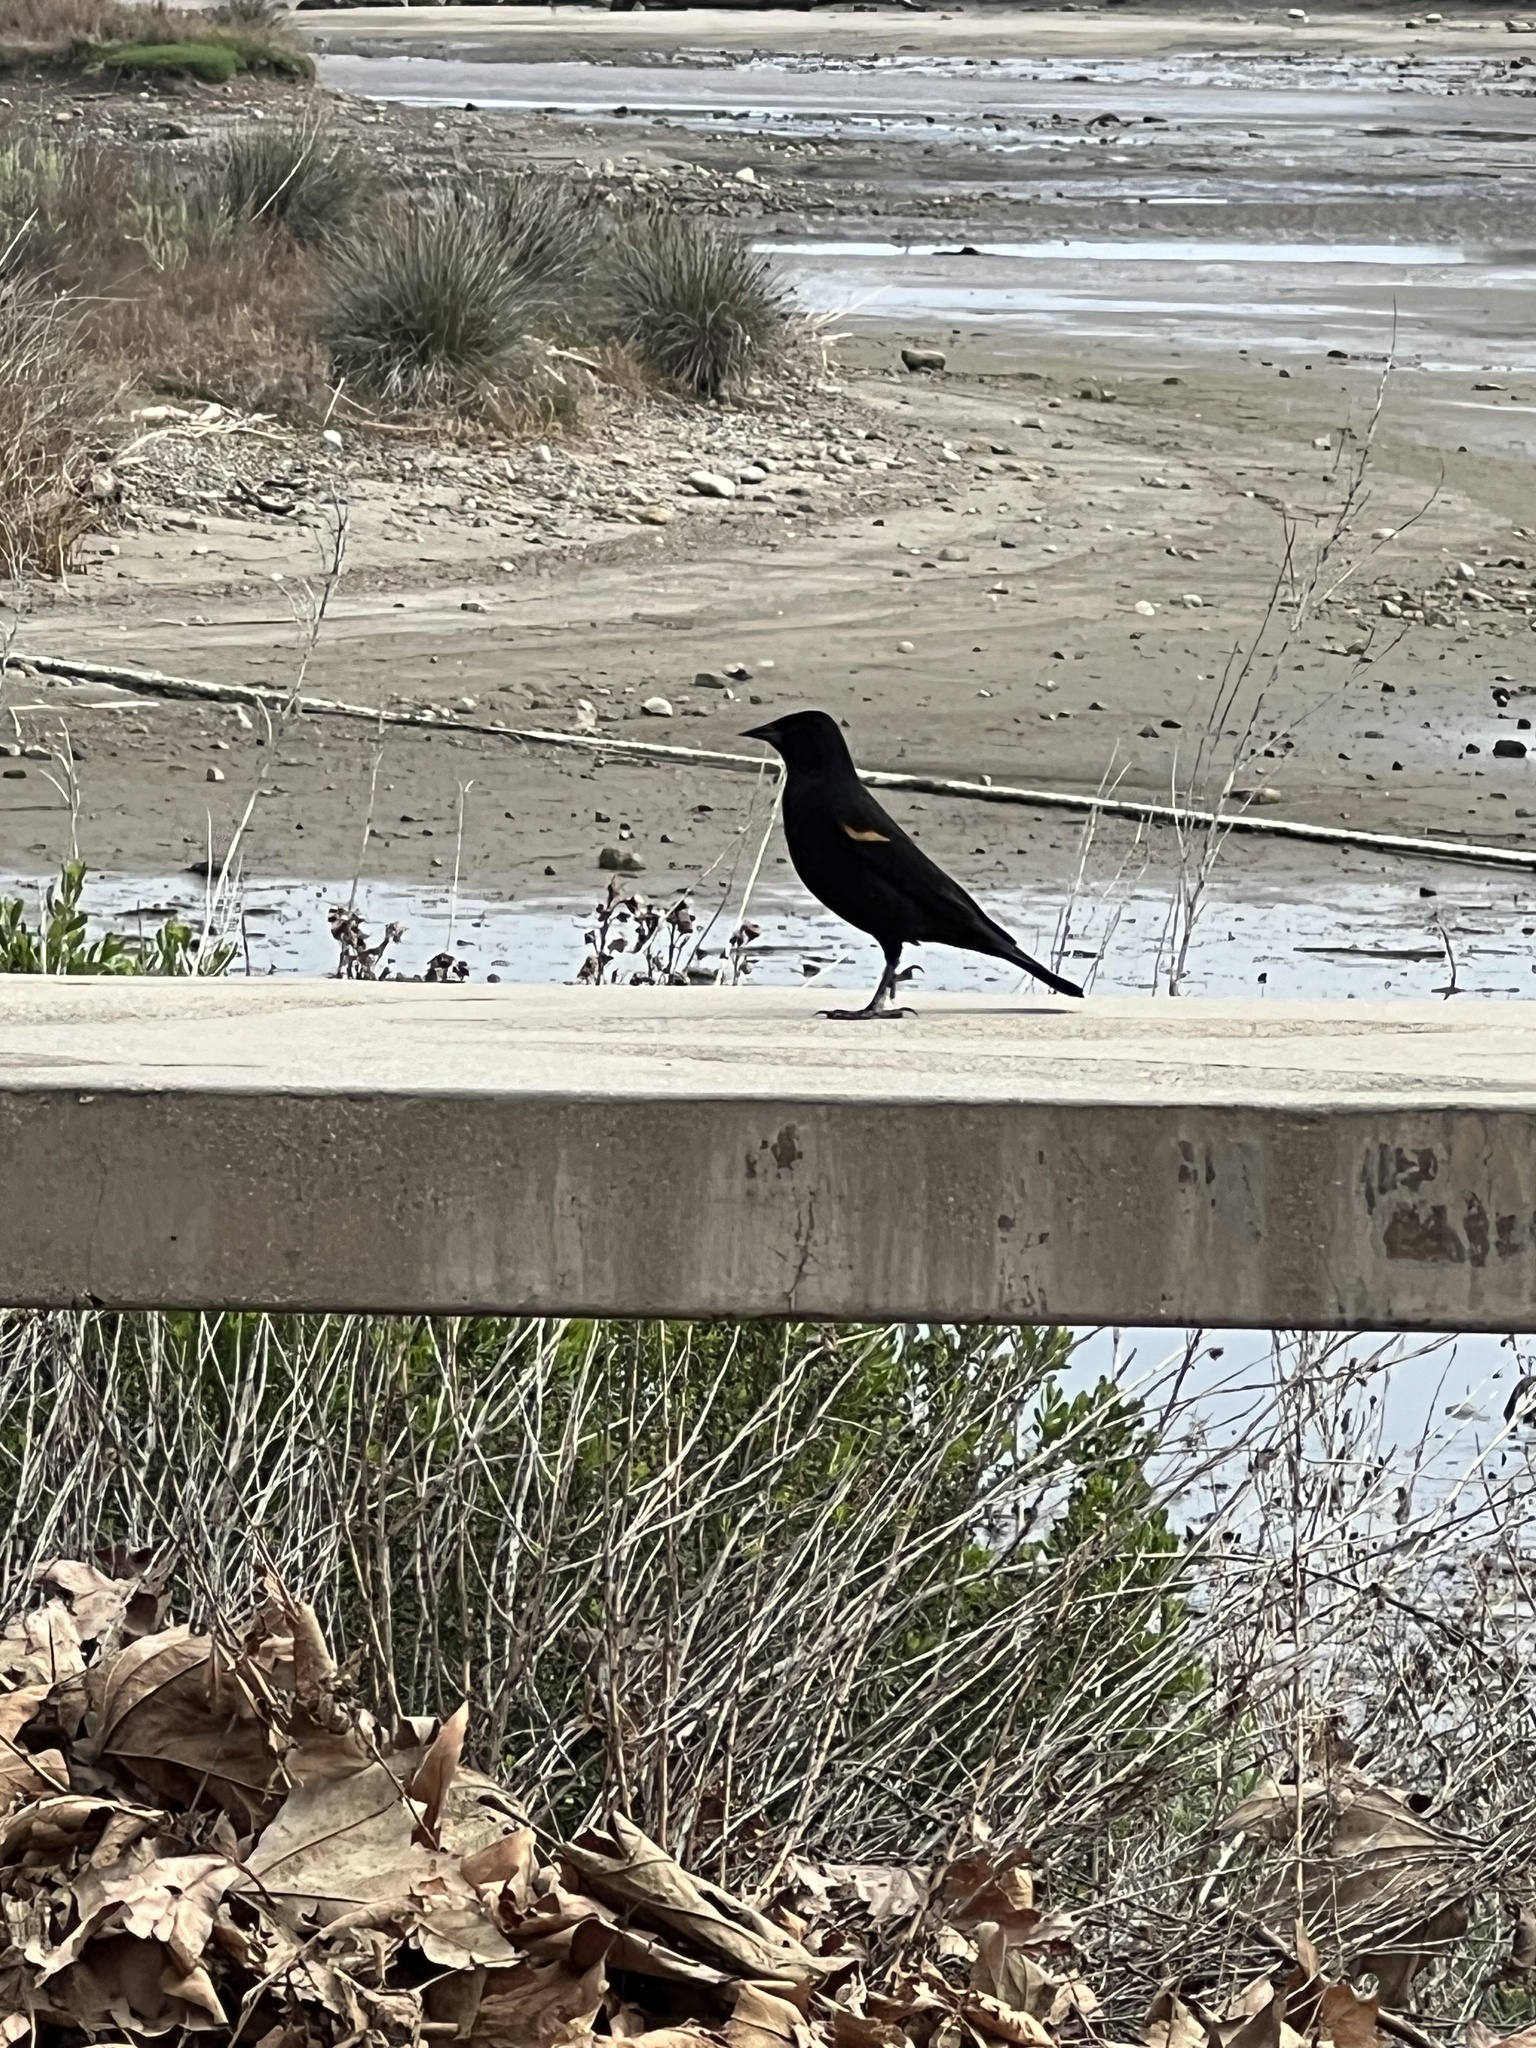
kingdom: Animalia
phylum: Chordata
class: Aves
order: Passeriformes
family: Icteridae
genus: Agelaius
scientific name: Agelaius phoeniceus
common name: Red-winged blackbird
